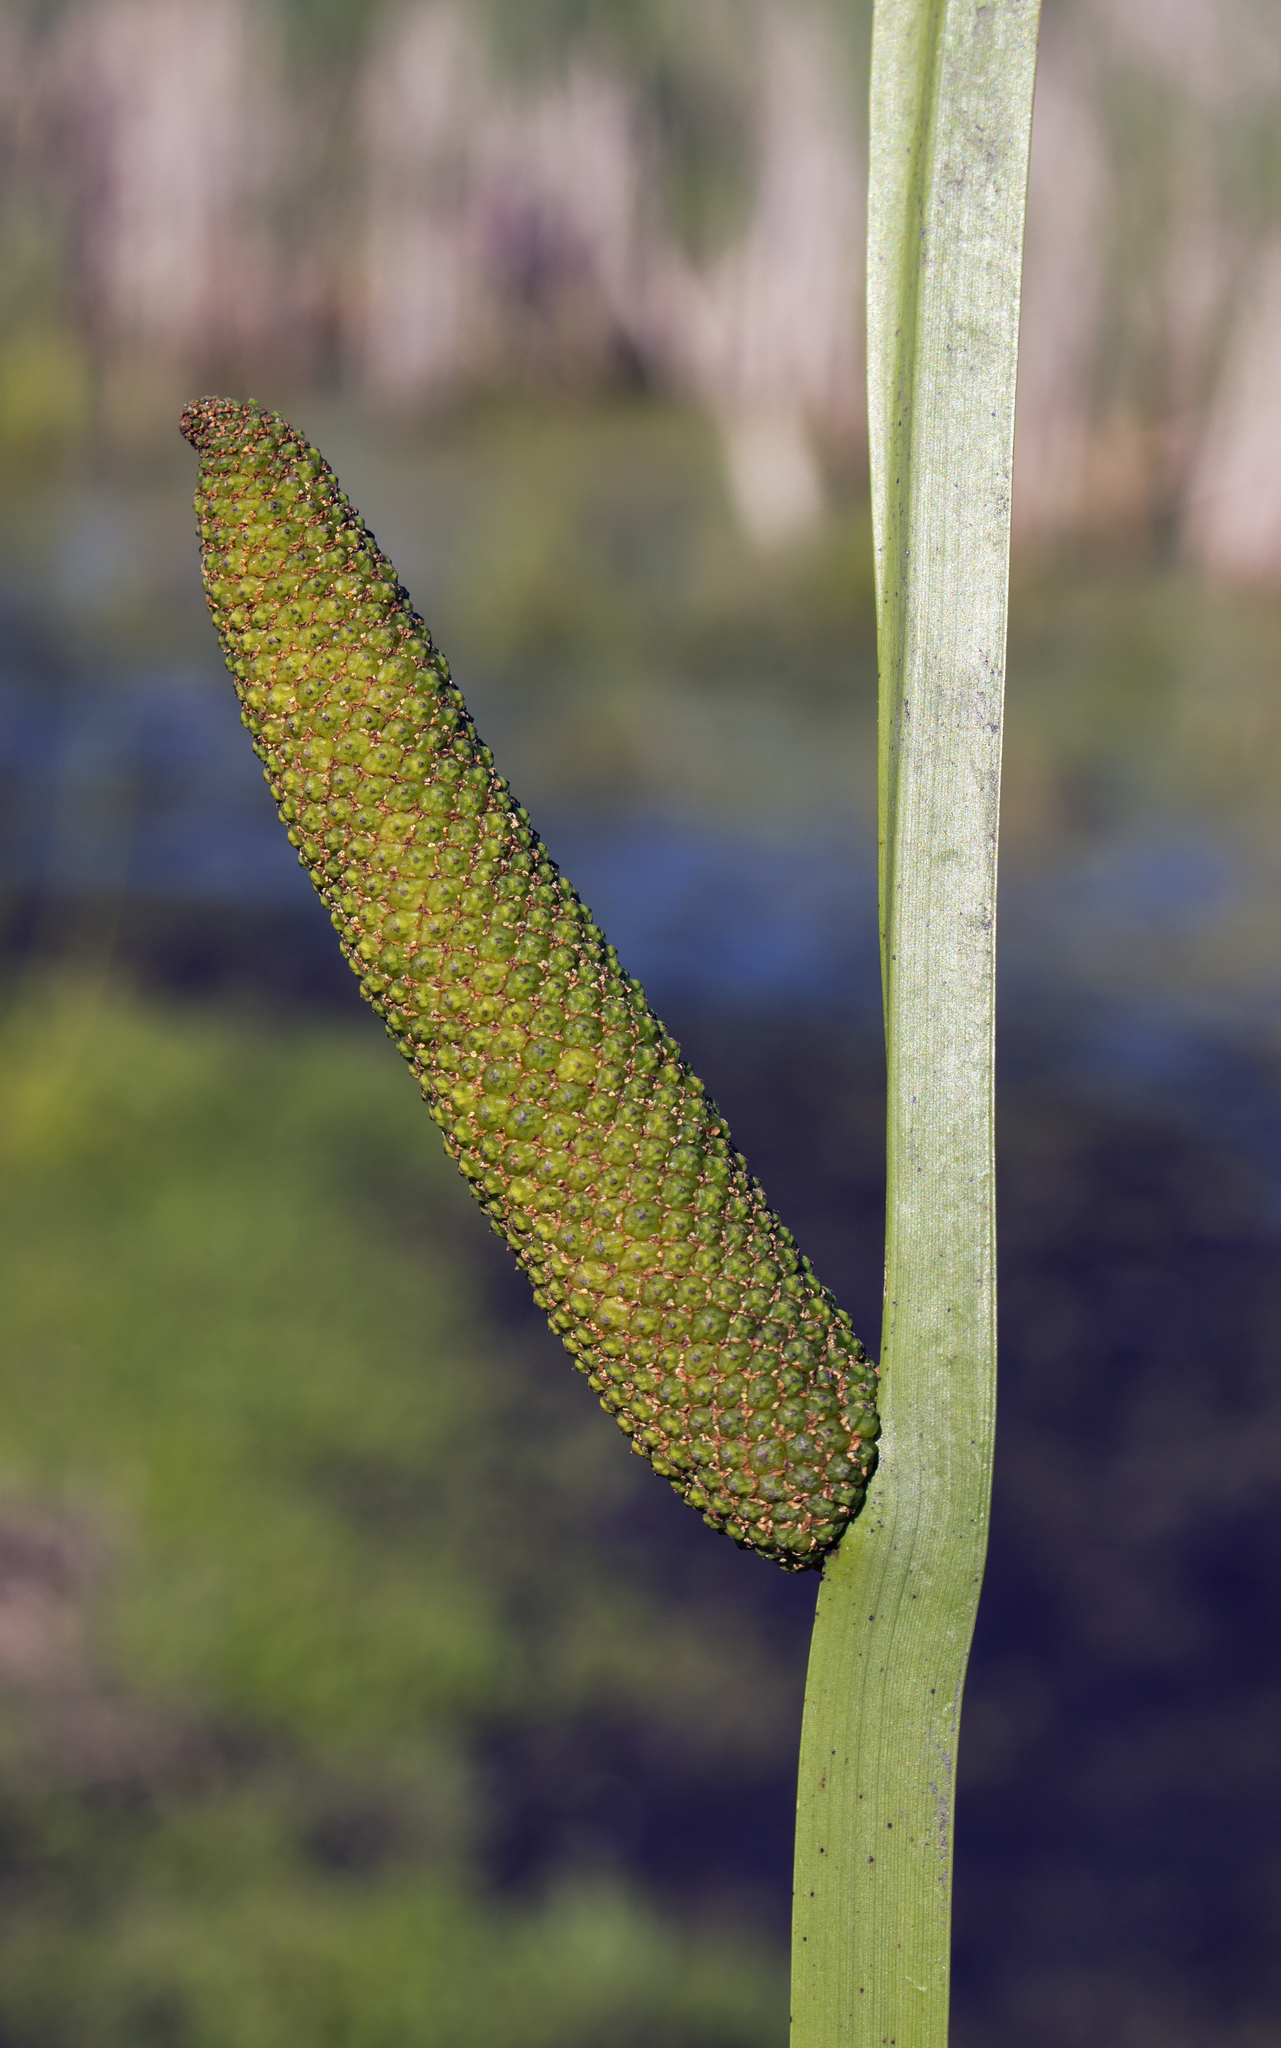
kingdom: Plantae
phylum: Tracheophyta
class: Liliopsida
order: Acorales
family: Acoraceae
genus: Acorus
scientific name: Acorus calamus
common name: Sweet-flag
